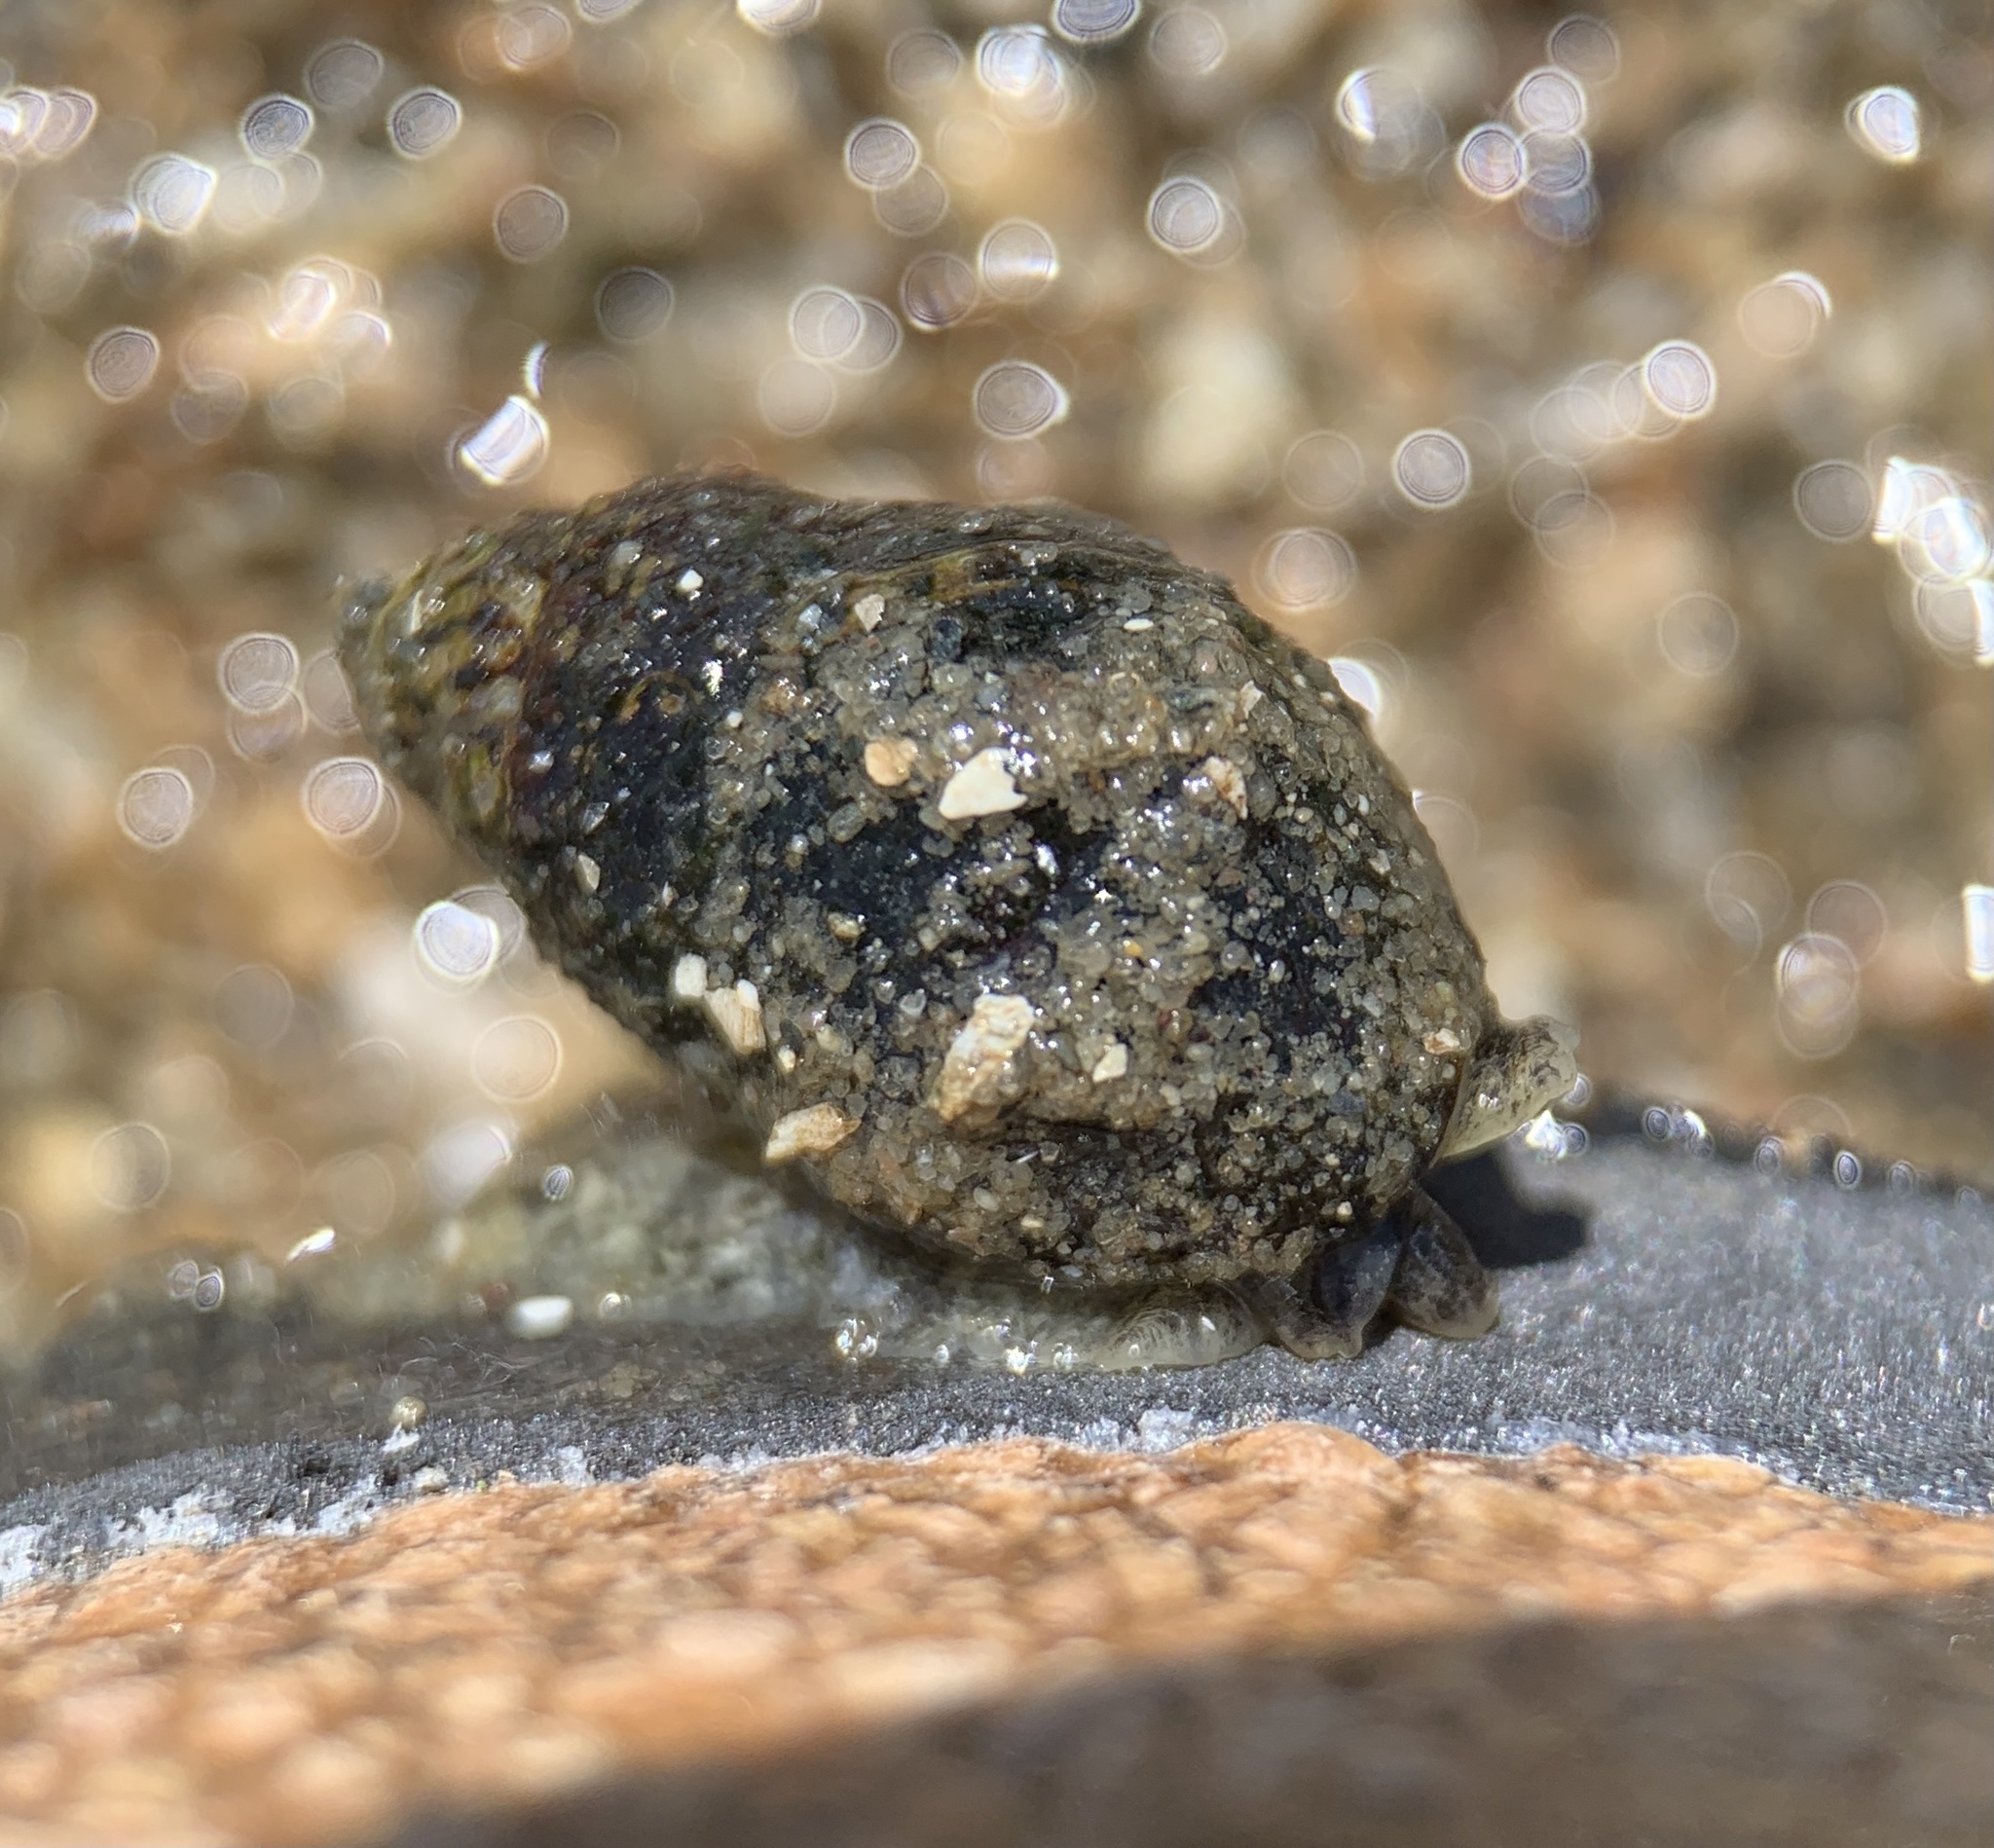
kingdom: Animalia
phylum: Mollusca
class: Gastropoda
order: Neogastropoda
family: Nassariidae
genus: Ilyanassa
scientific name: Ilyanassa obsoleta
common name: Eastern mudsnail
